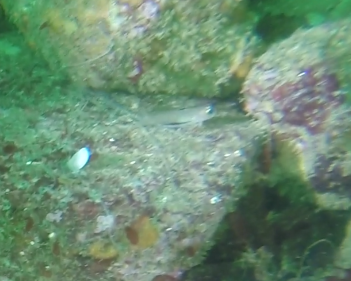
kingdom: Animalia
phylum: Chordata
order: Perciformes
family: Gobiidae
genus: Rhinogobiops
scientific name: Rhinogobiops nicholsii
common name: Blackeye goby
